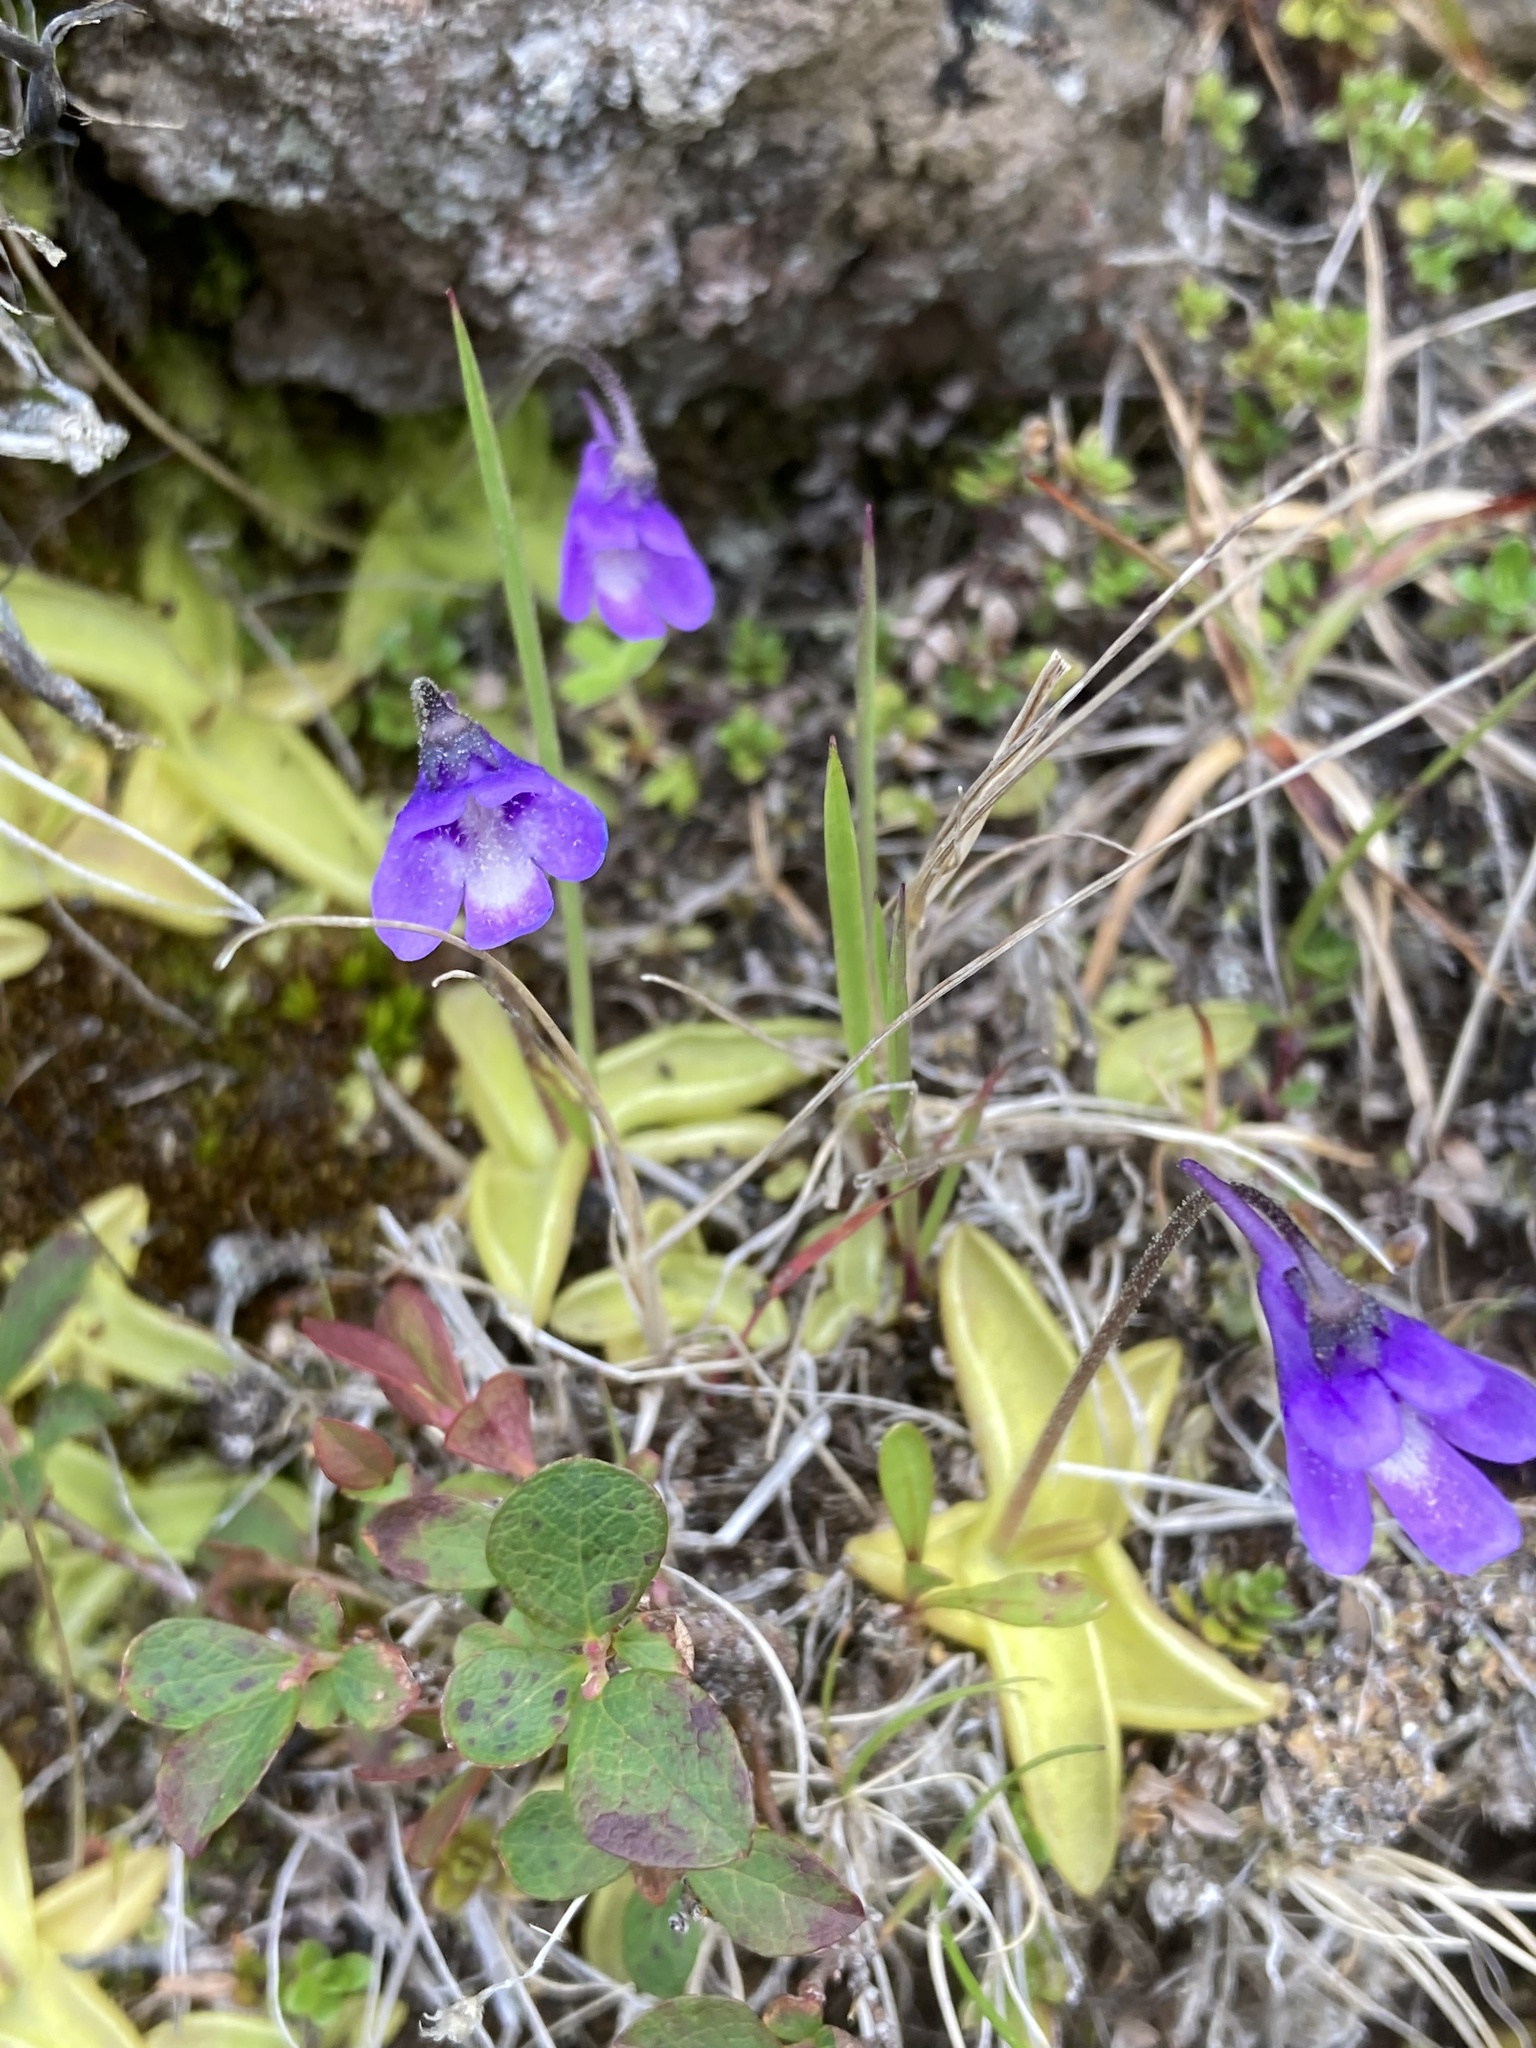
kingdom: Plantae
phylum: Tracheophyta
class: Magnoliopsida
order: Lamiales
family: Lentibulariaceae
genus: Pinguicula
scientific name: Pinguicula vulgaris
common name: Common butterwort
